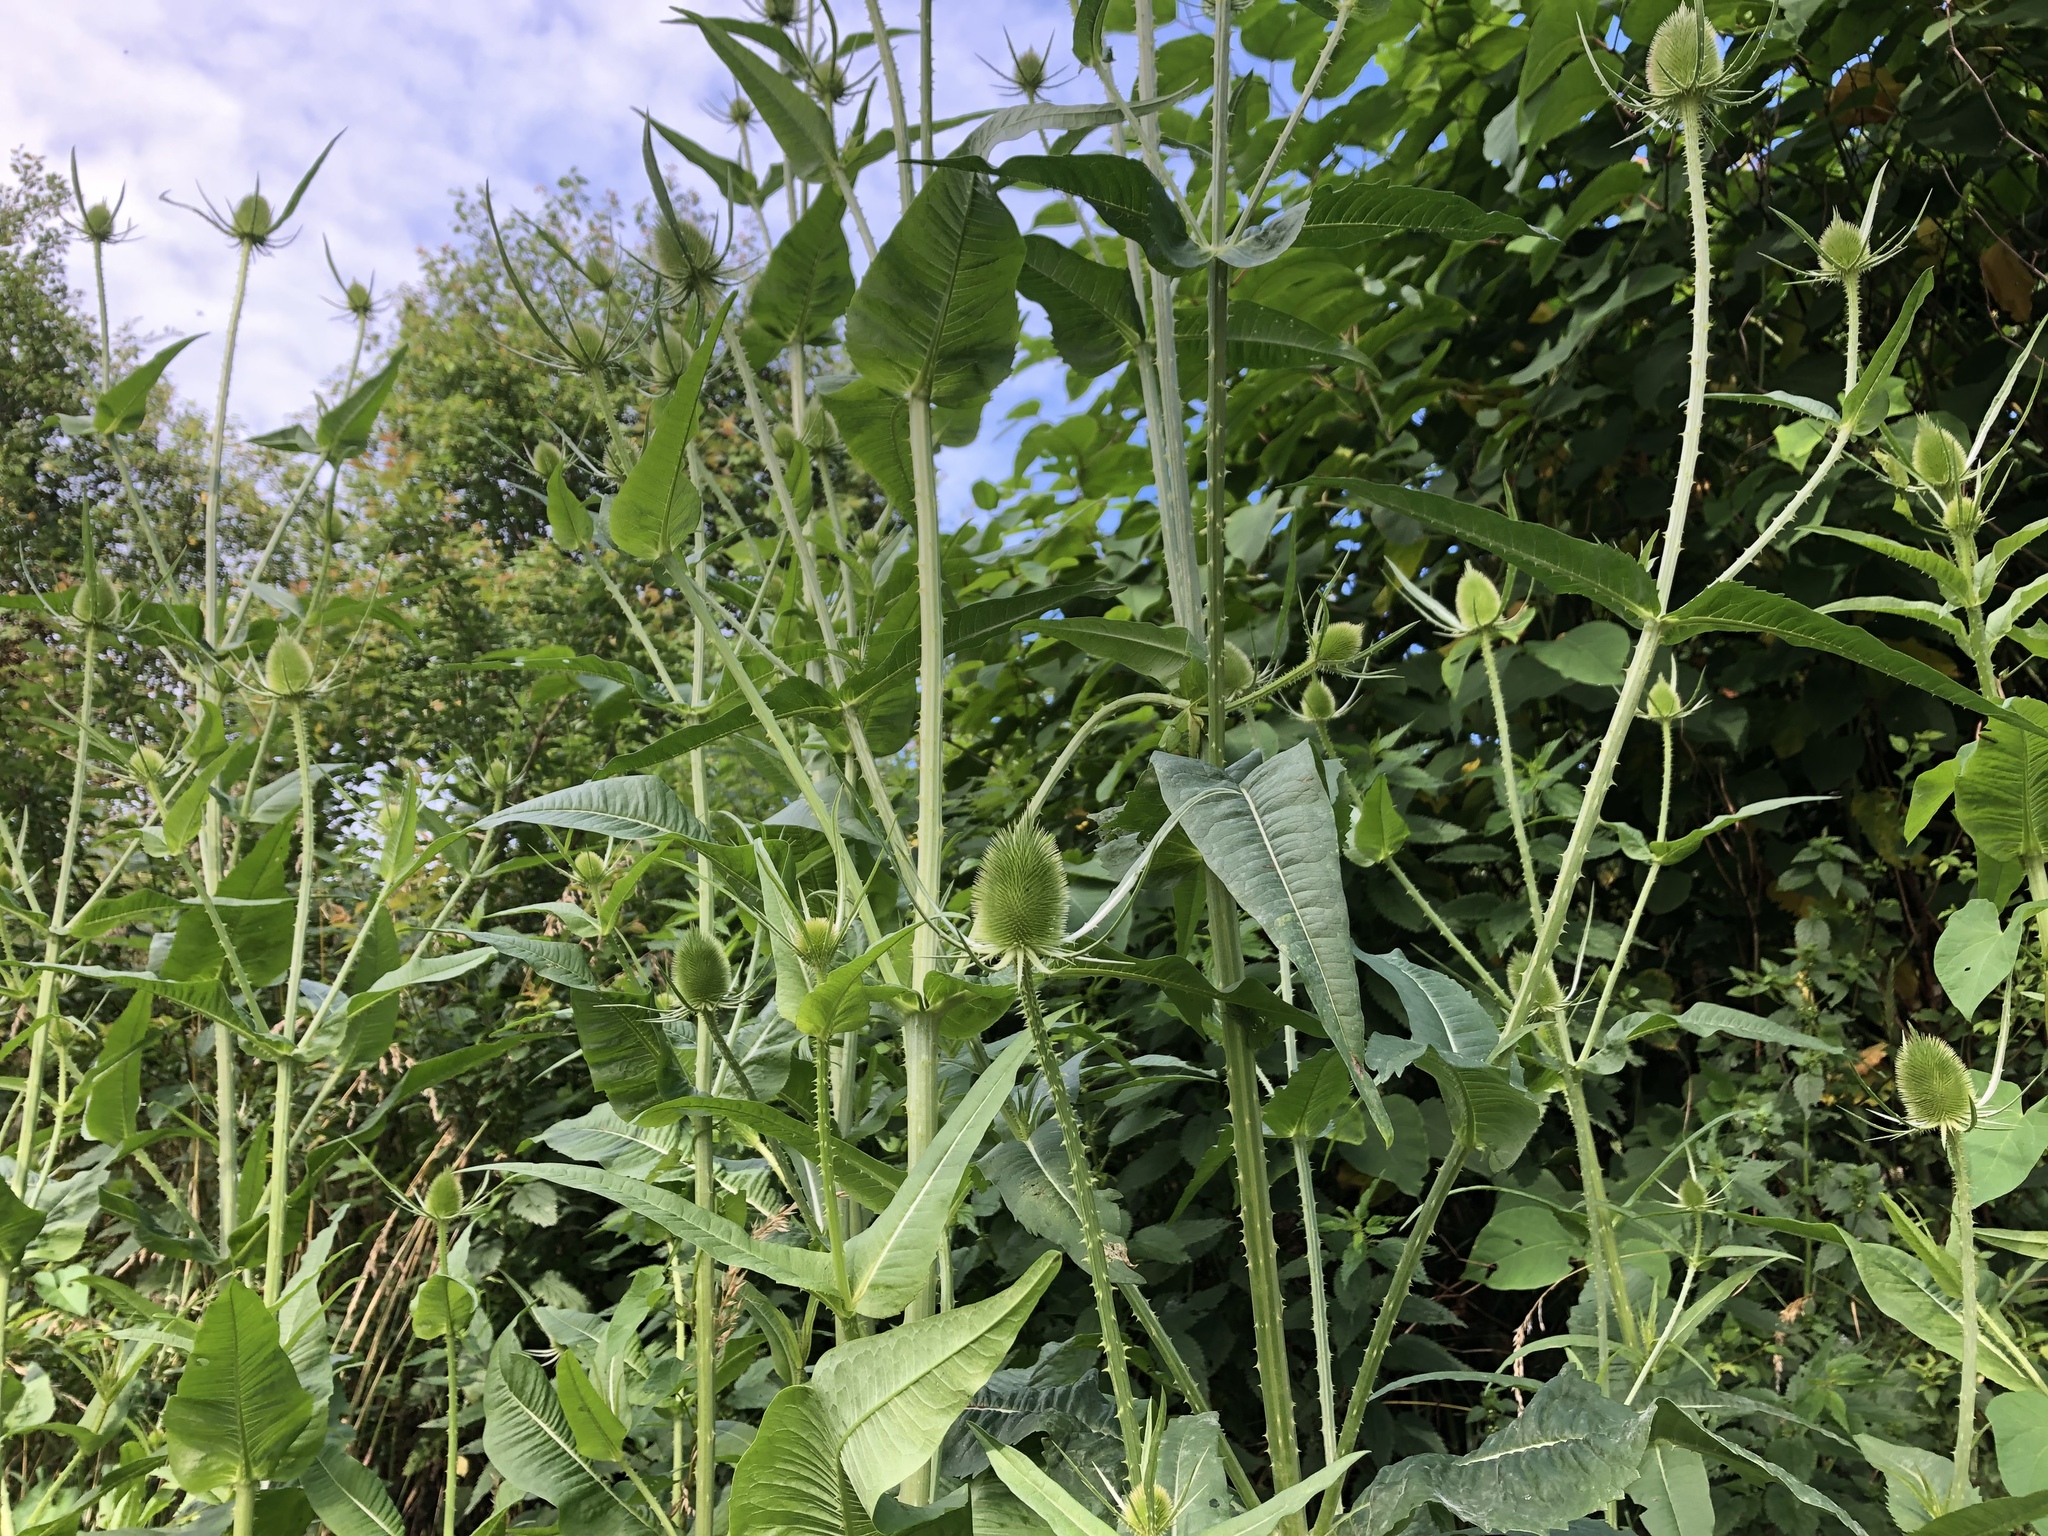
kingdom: Plantae
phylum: Tracheophyta
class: Magnoliopsida
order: Dipsacales
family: Caprifoliaceae
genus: Dipsacus
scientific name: Dipsacus fullonum
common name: Teasel
